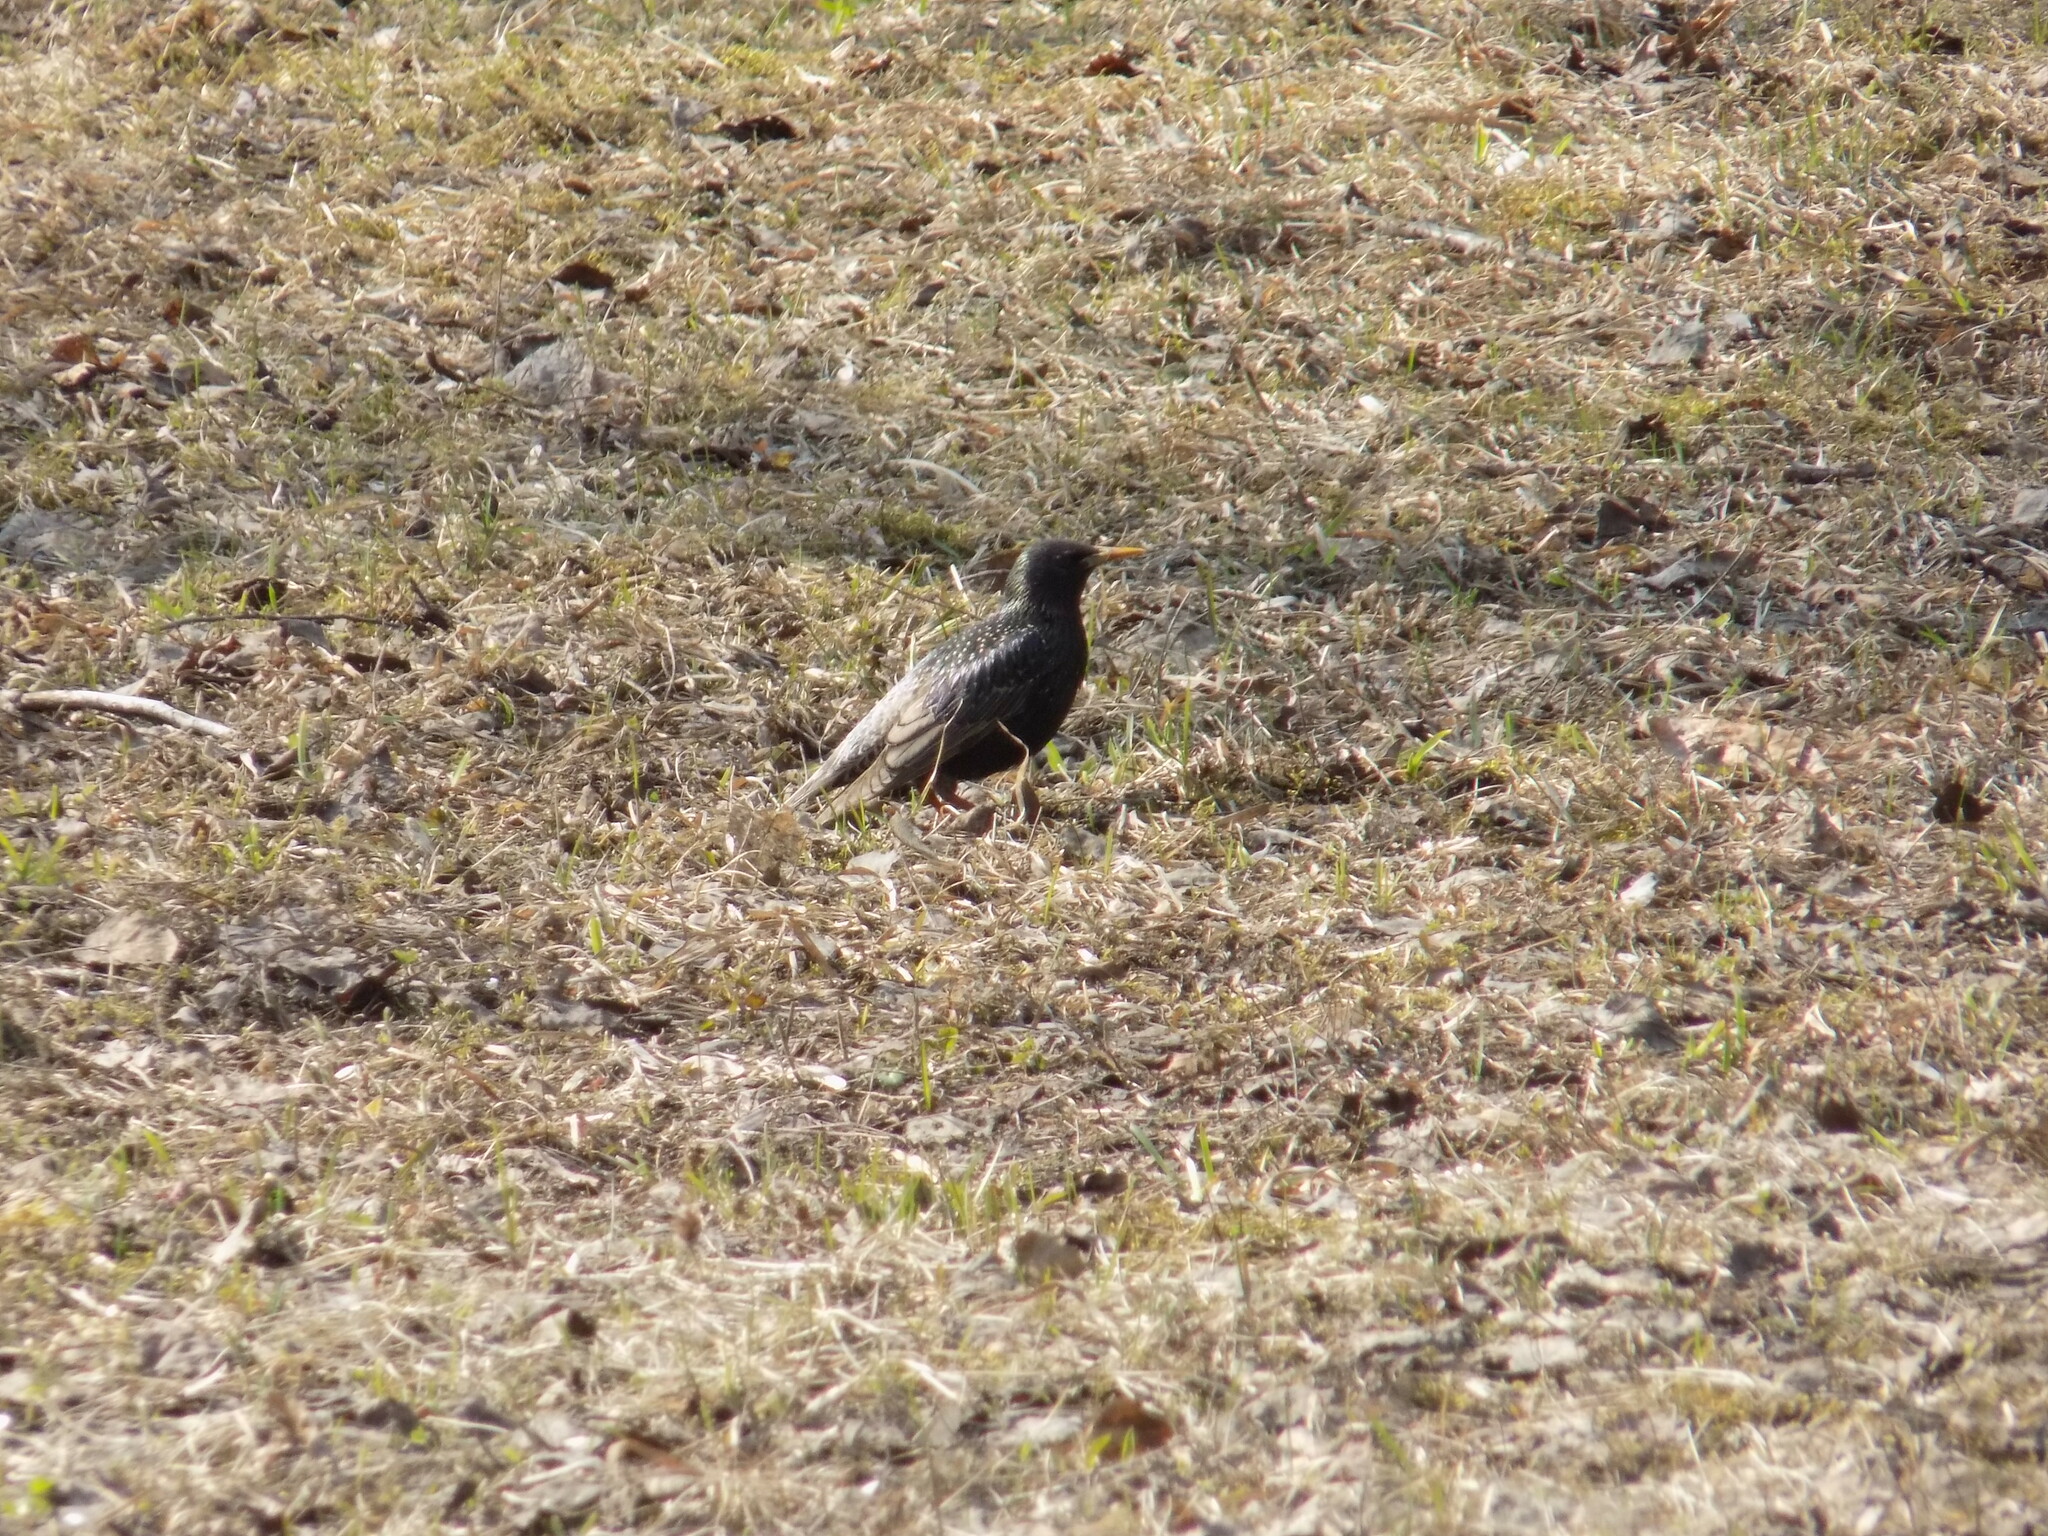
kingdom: Animalia
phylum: Chordata
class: Aves
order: Passeriformes
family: Sturnidae
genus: Sturnus
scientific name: Sturnus vulgaris
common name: Common starling
